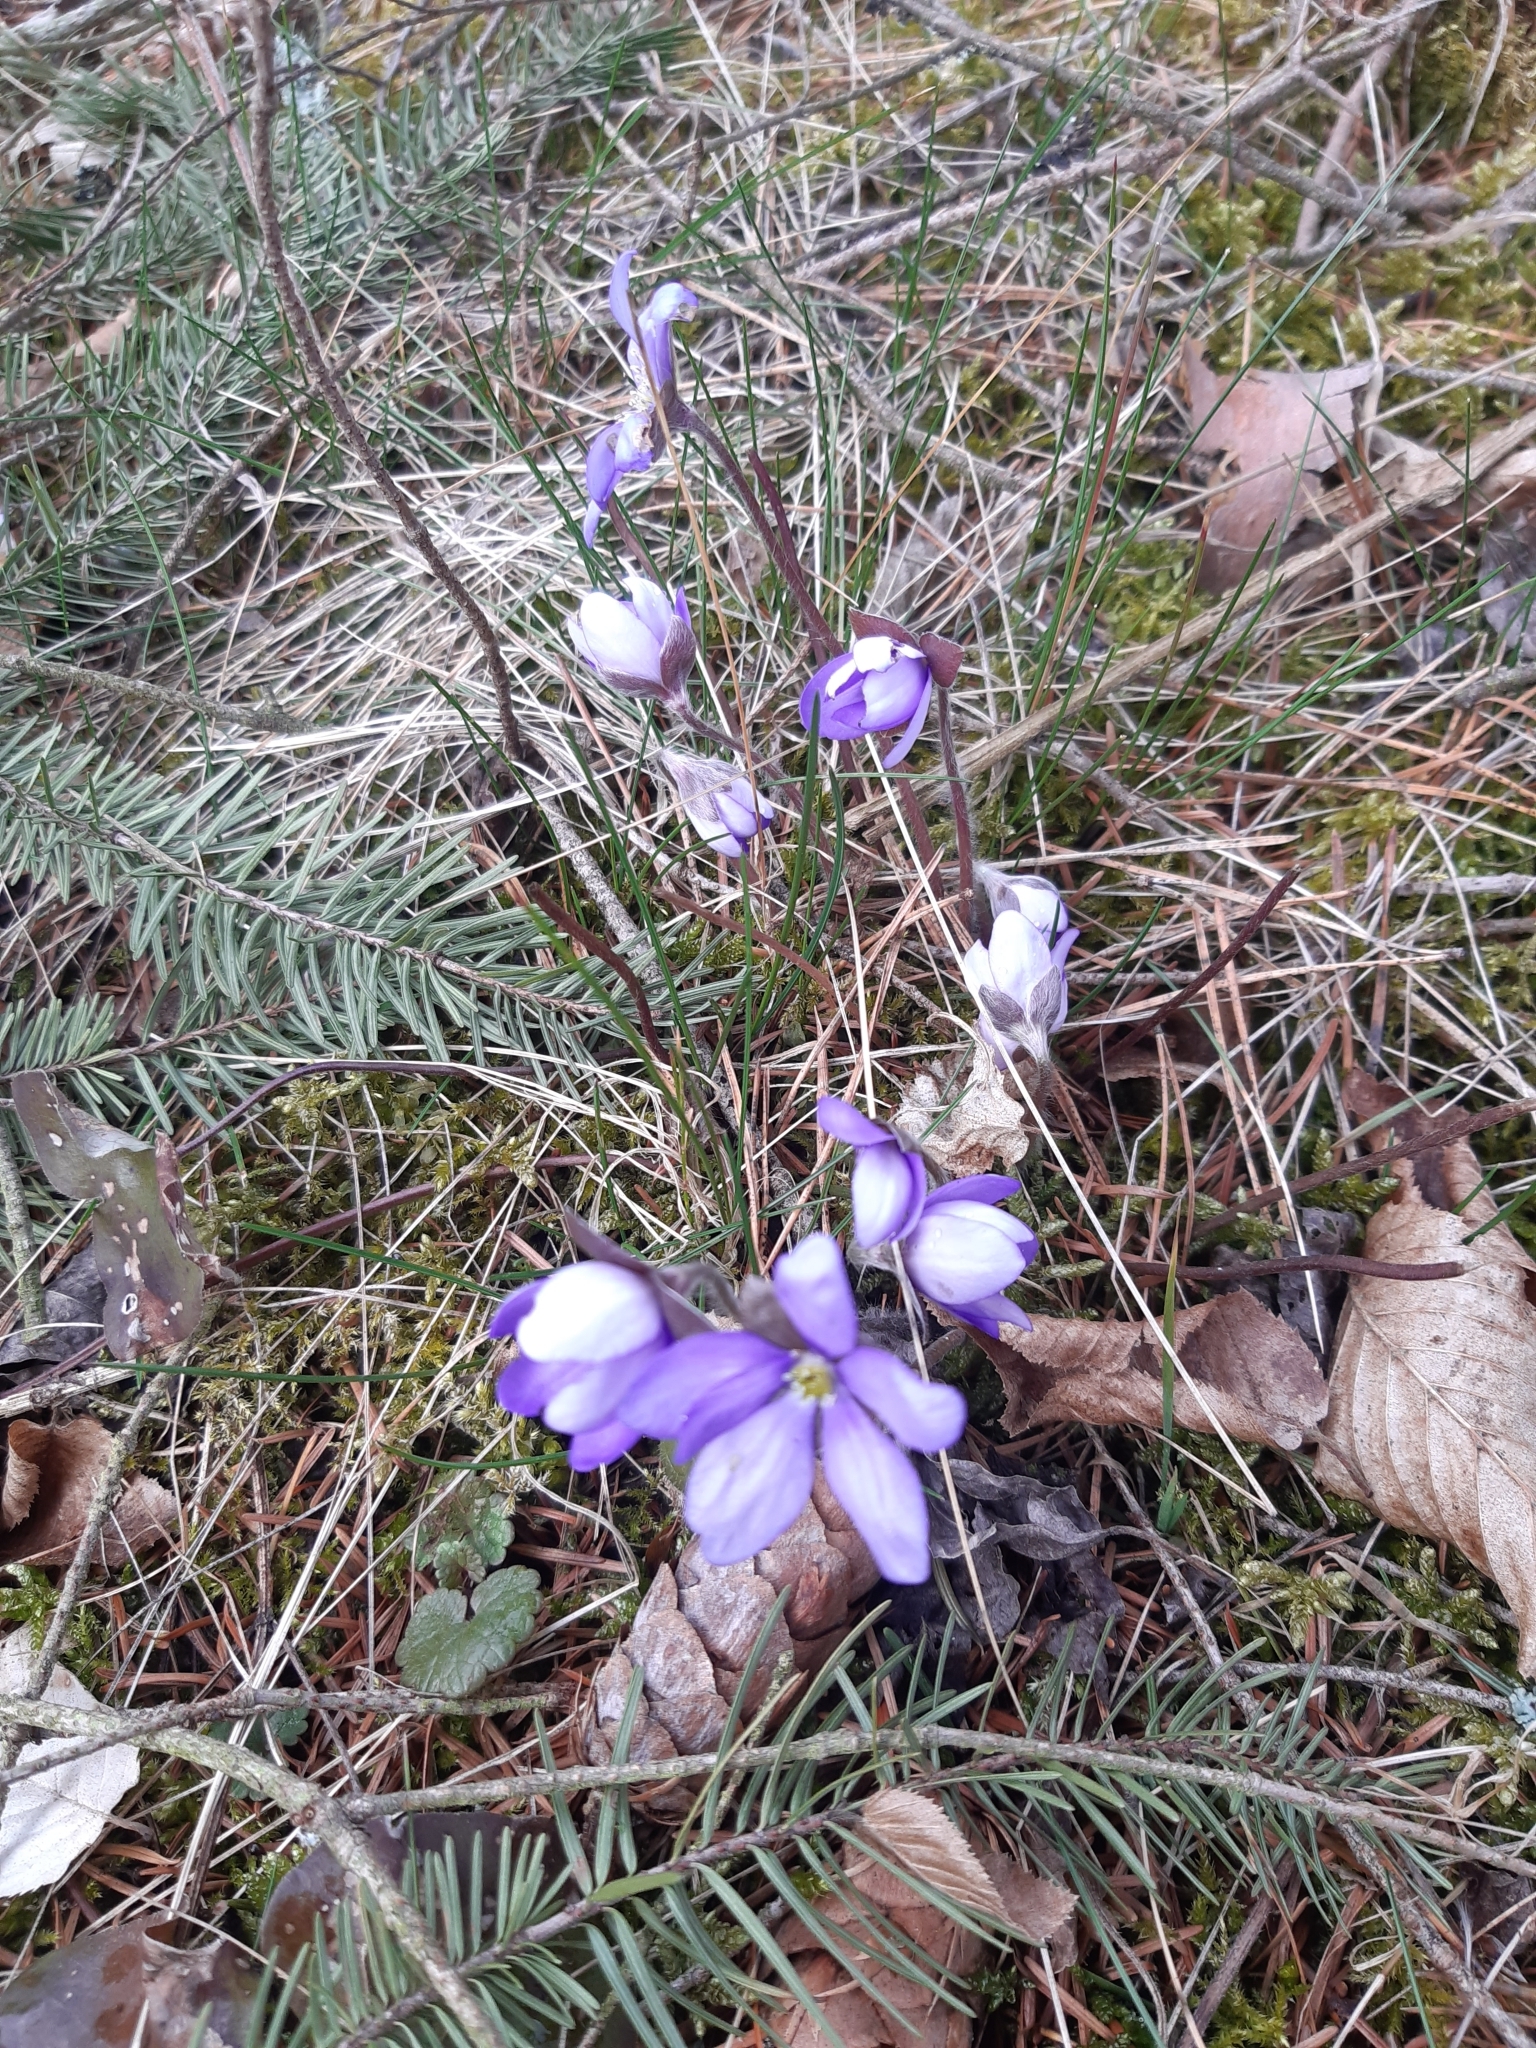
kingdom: Plantae
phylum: Tracheophyta
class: Magnoliopsida
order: Ranunculales
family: Ranunculaceae
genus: Hepatica
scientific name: Hepatica nobilis
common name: Liverleaf
